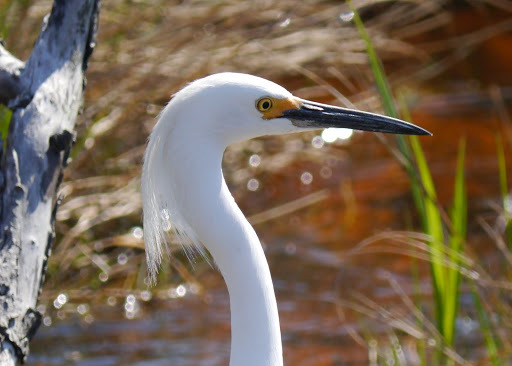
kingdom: Animalia
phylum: Chordata
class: Aves
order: Pelecaniformes
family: Ardeidae
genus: Egretta
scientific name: Egretta thula
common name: Snowy egret
